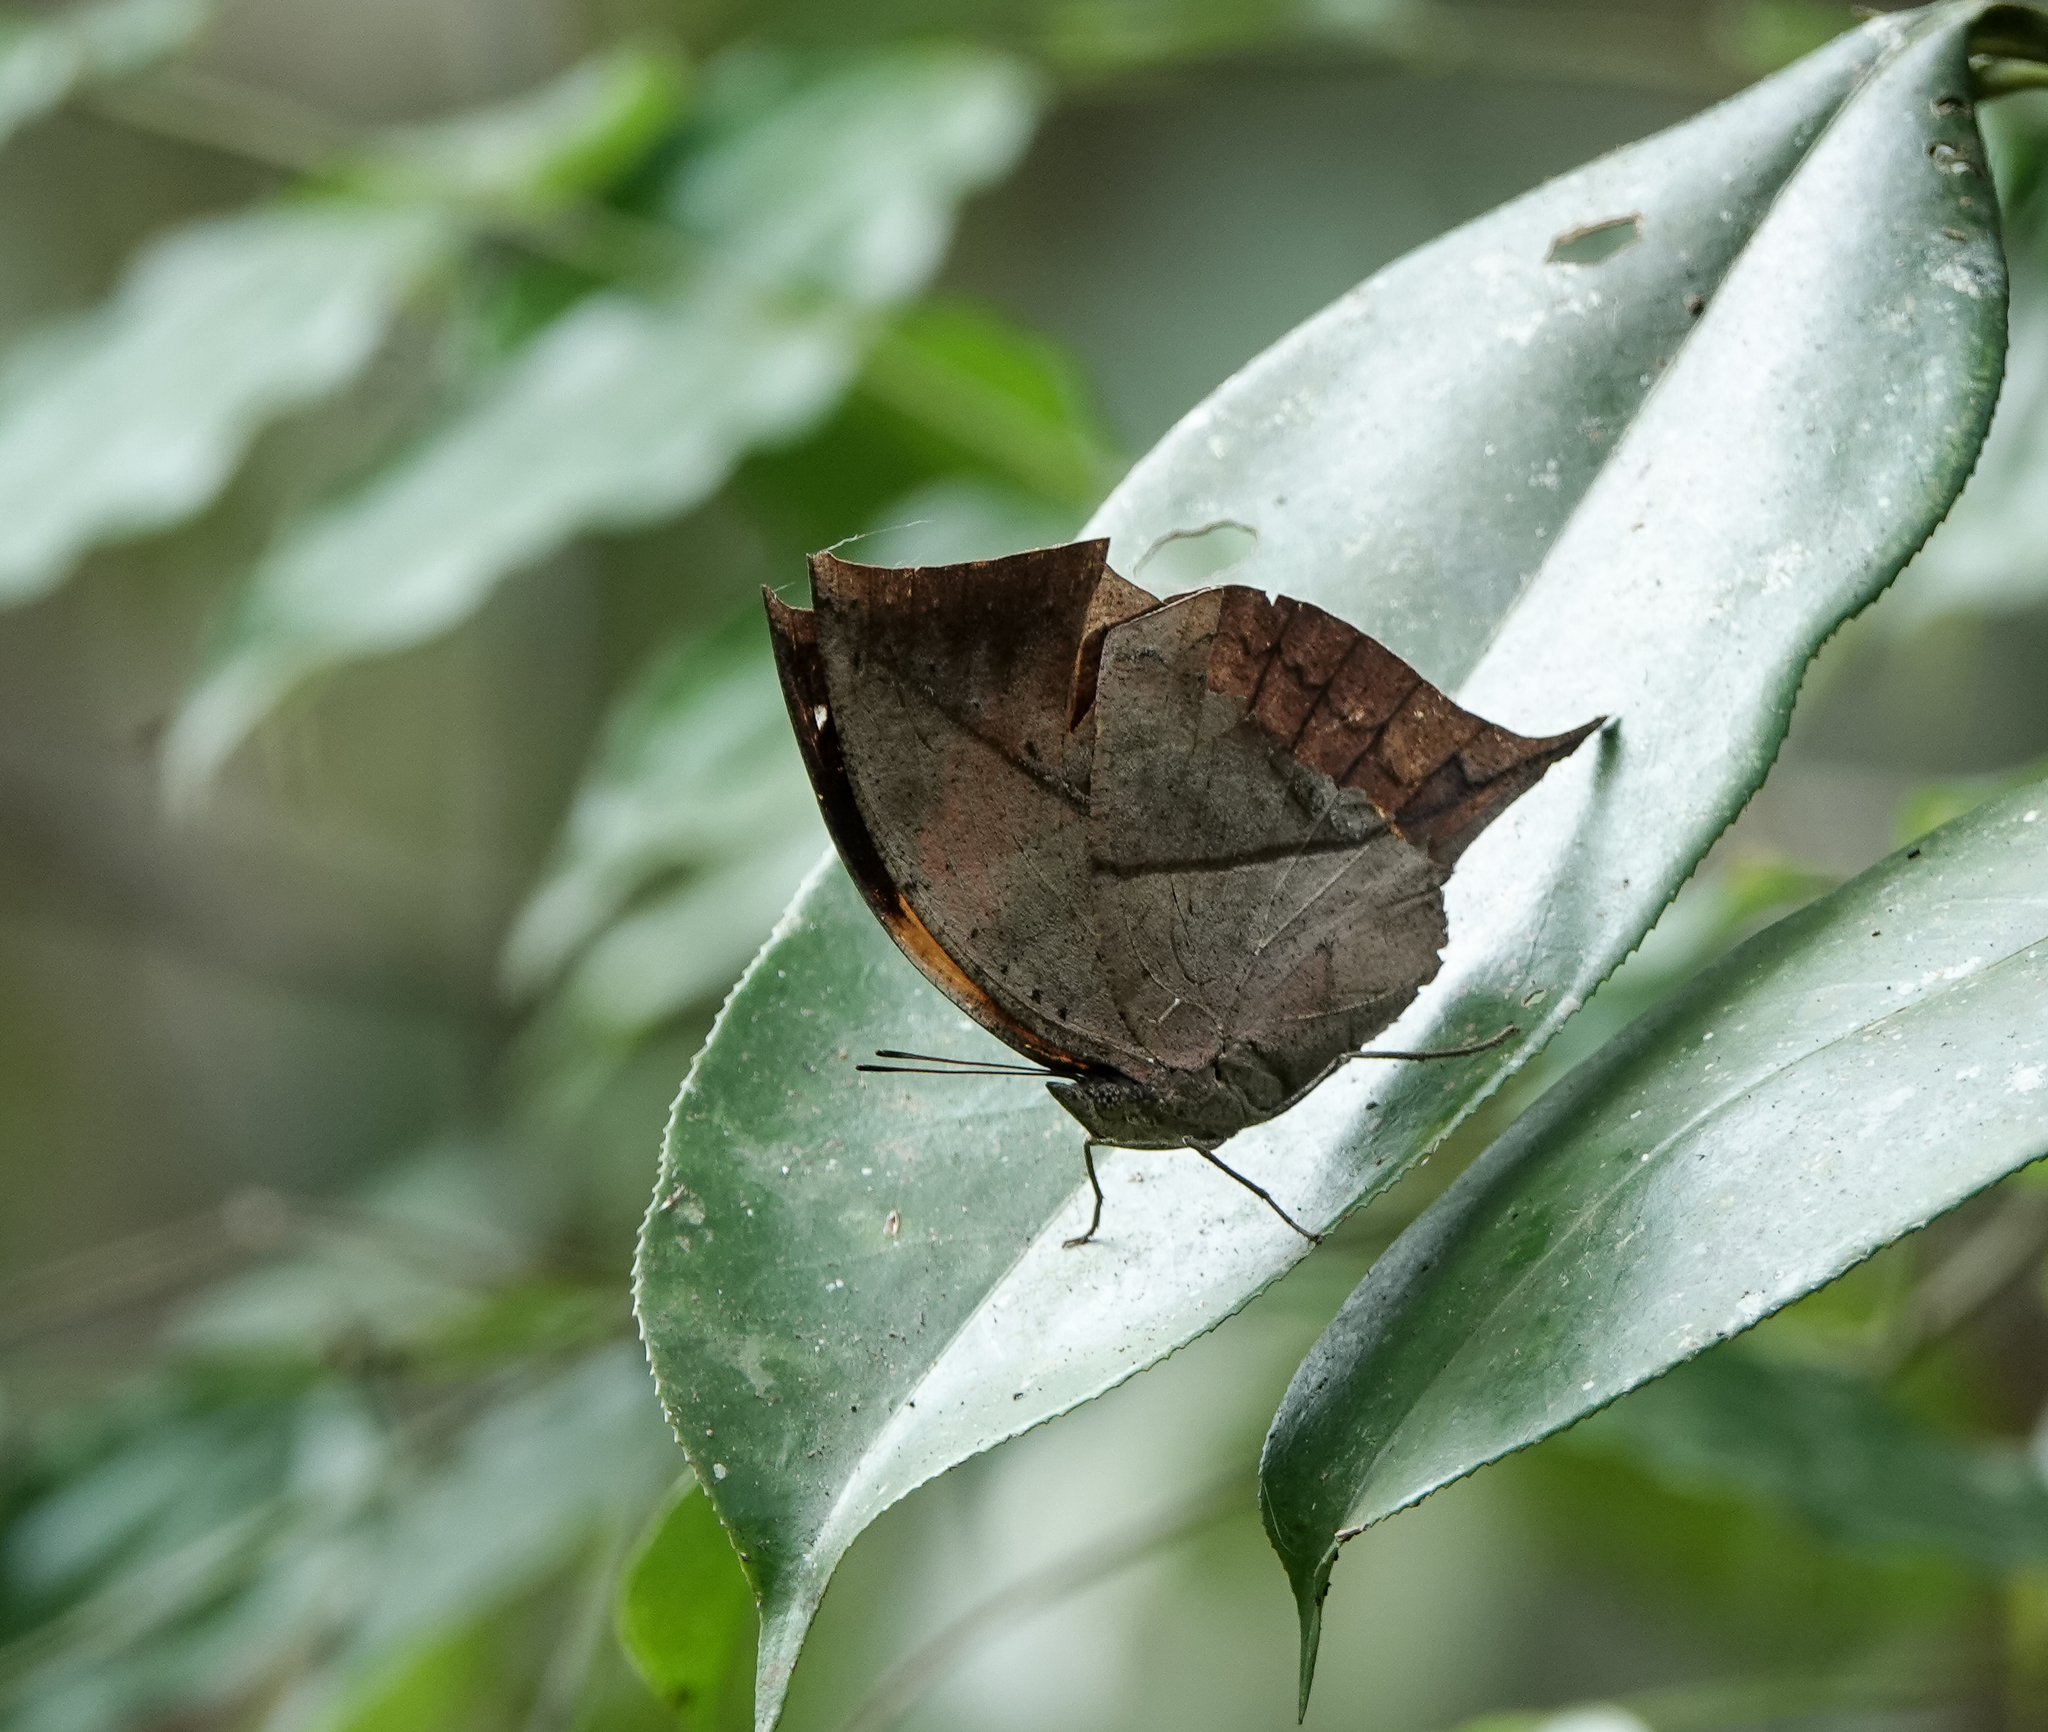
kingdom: Animalia
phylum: Arthropoda
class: Insecta
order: Lepidoptera
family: Nymphalidae
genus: Kallima
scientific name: Kallima inachus
